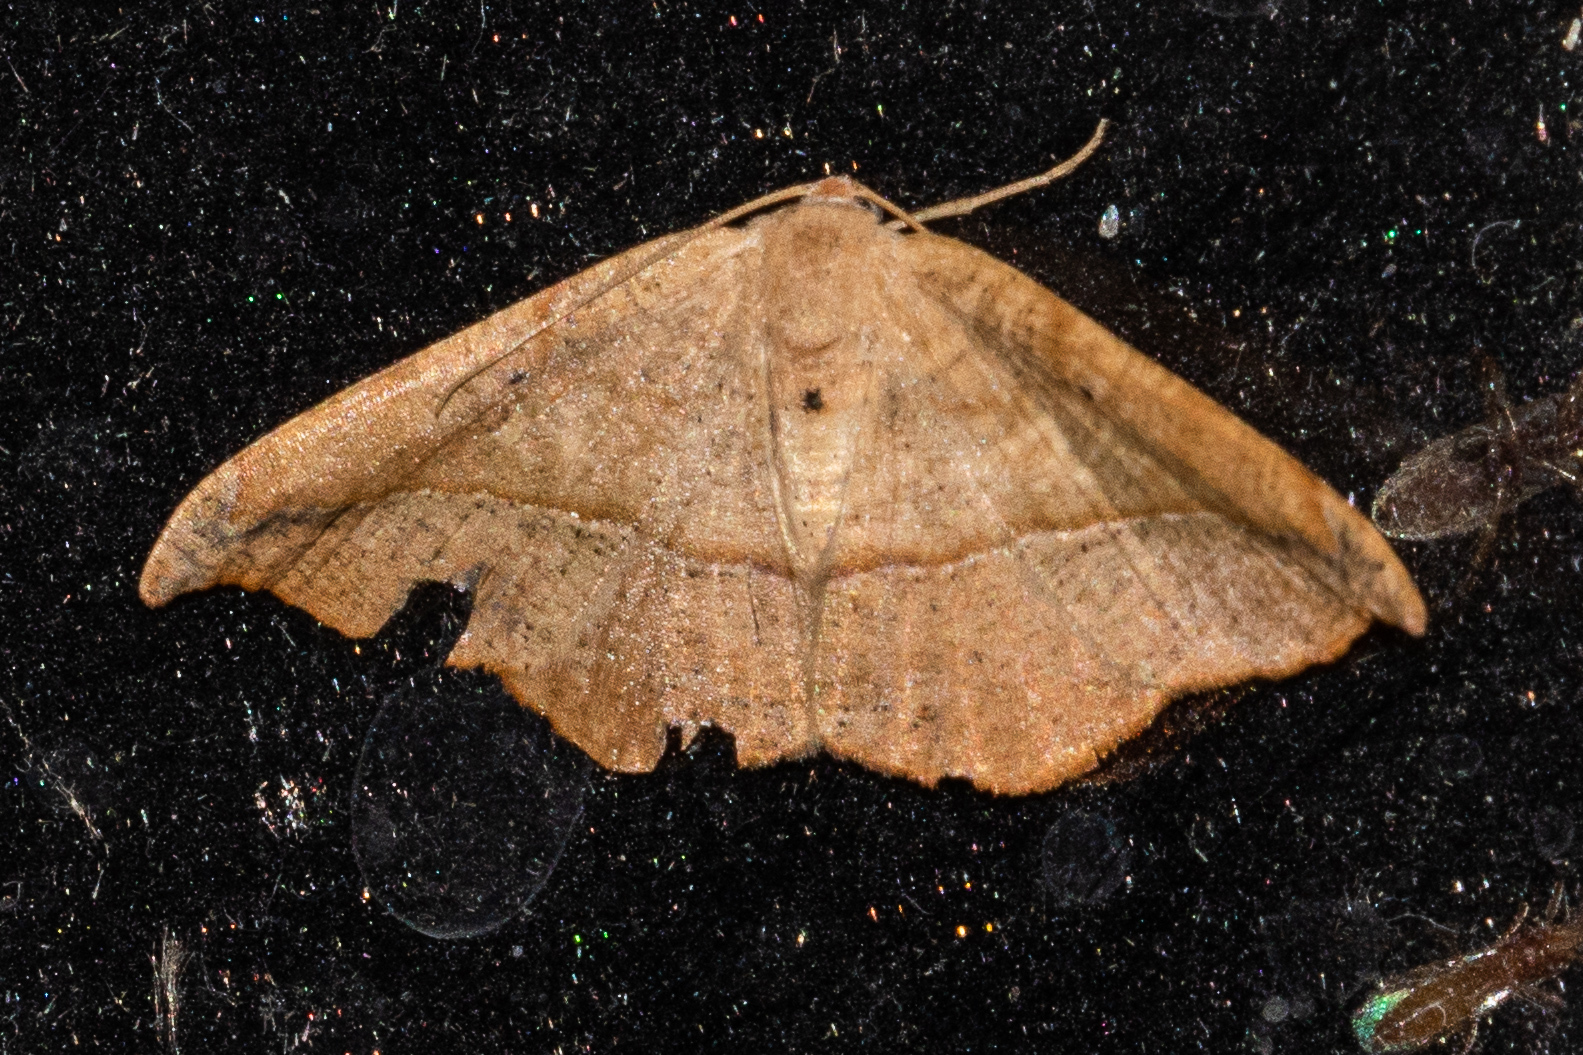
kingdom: Animalia
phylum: Arthropoda
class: Insecta
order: Lepidoptera
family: Geometridae
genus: Patalene
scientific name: Patalene olyzonaria
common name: Juniper geometer moth
